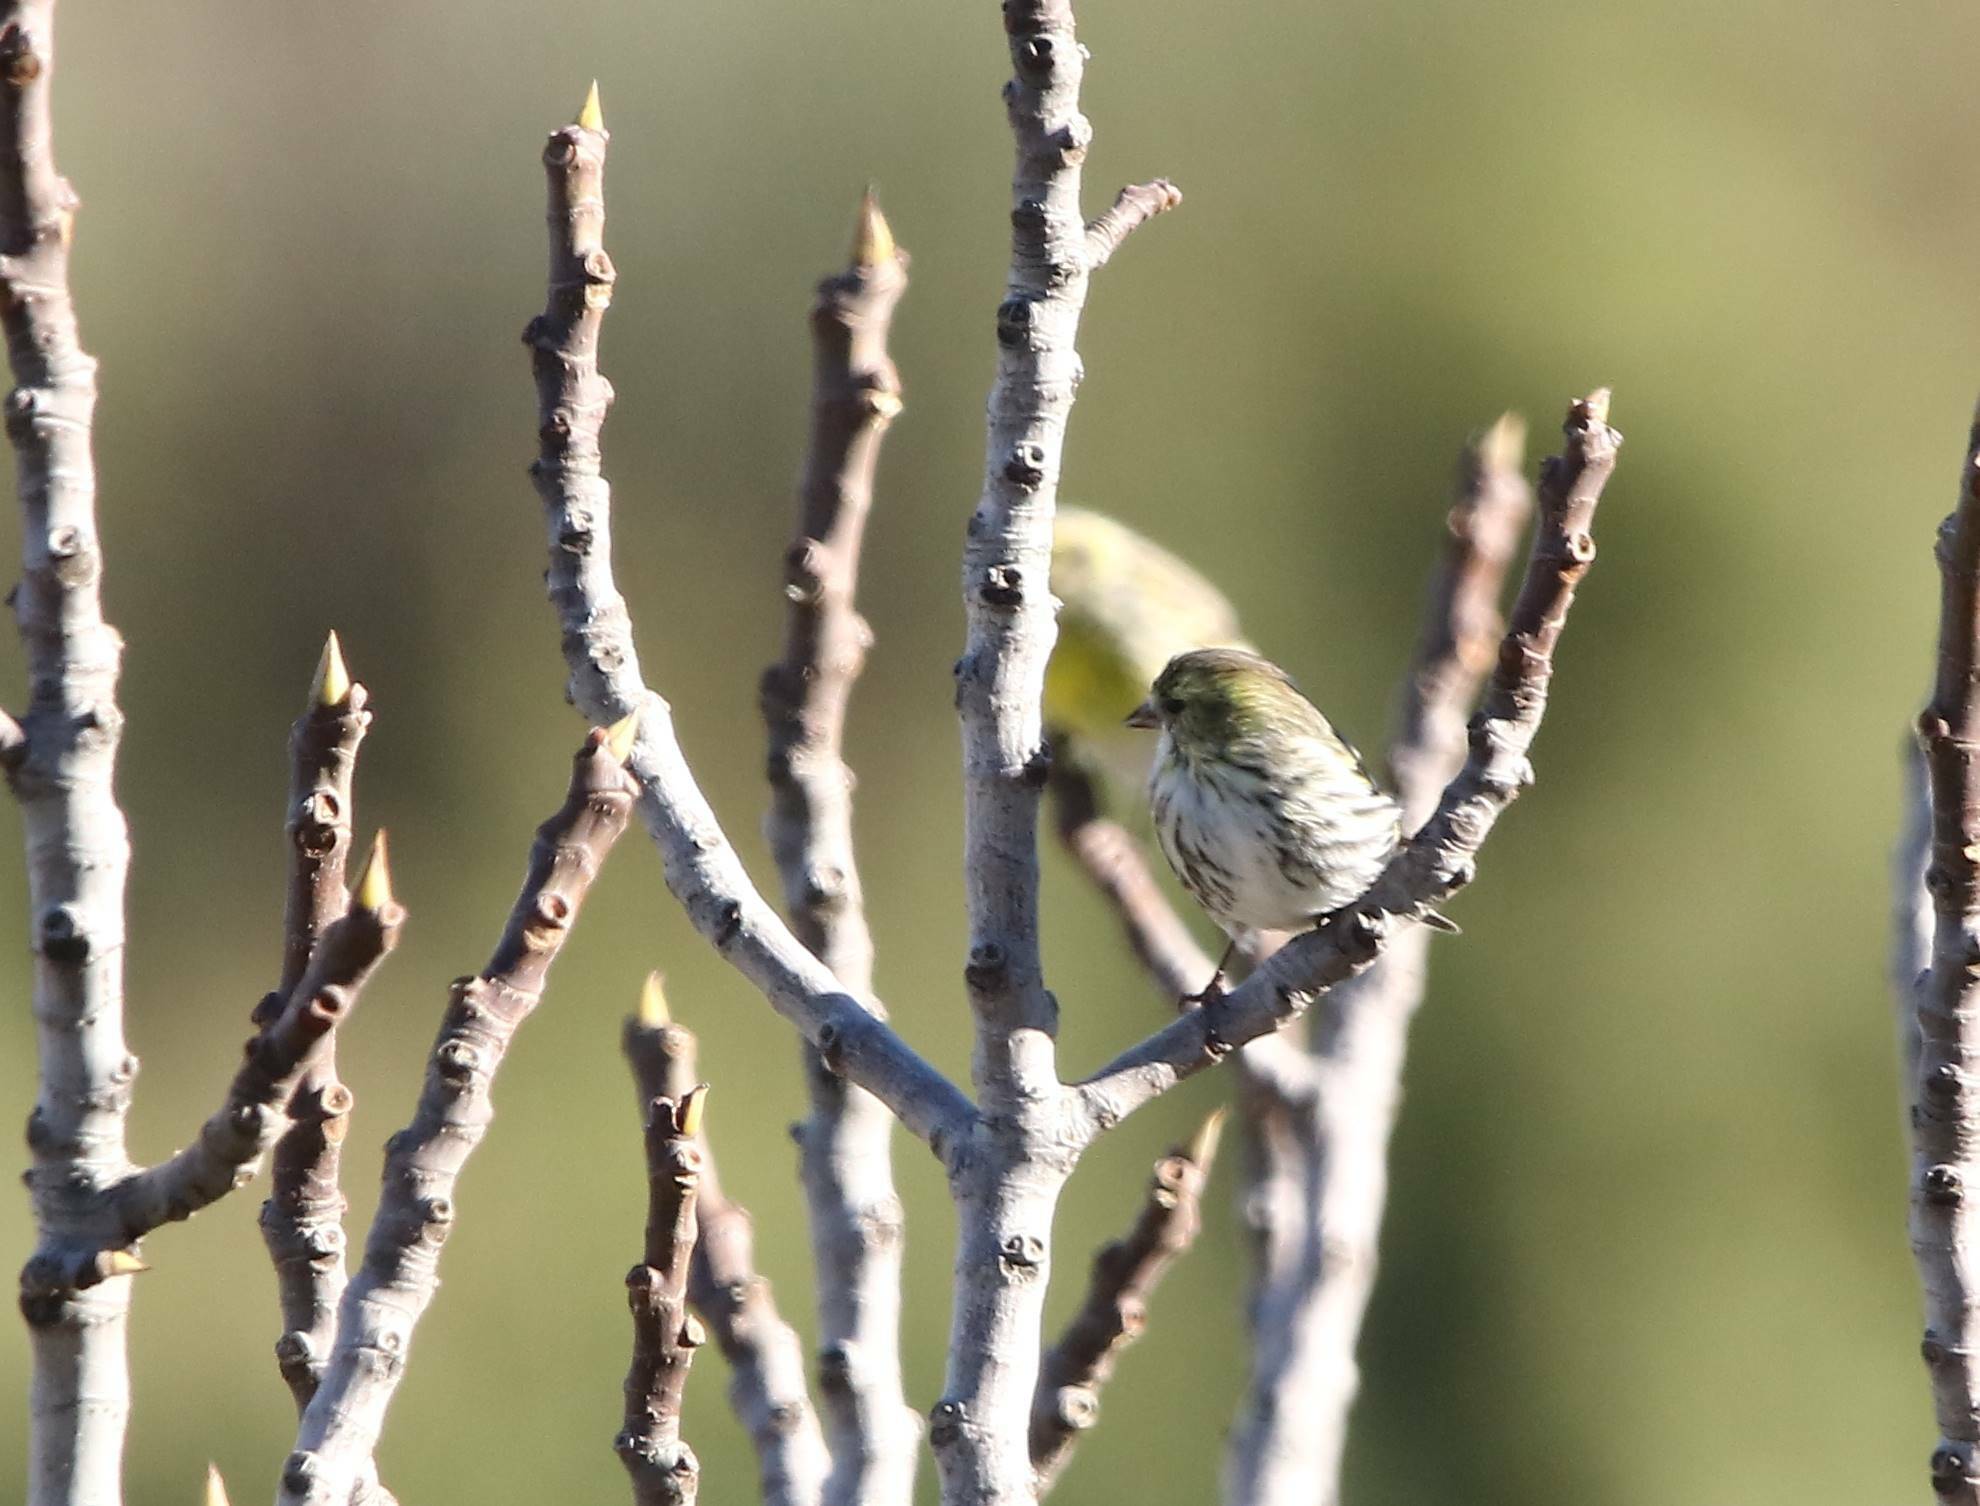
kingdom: Animalia
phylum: Chordata
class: Aves
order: Passeriformes
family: Fringillidae
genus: Spinus
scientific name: Spinus spinus
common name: Eurasian siskin
